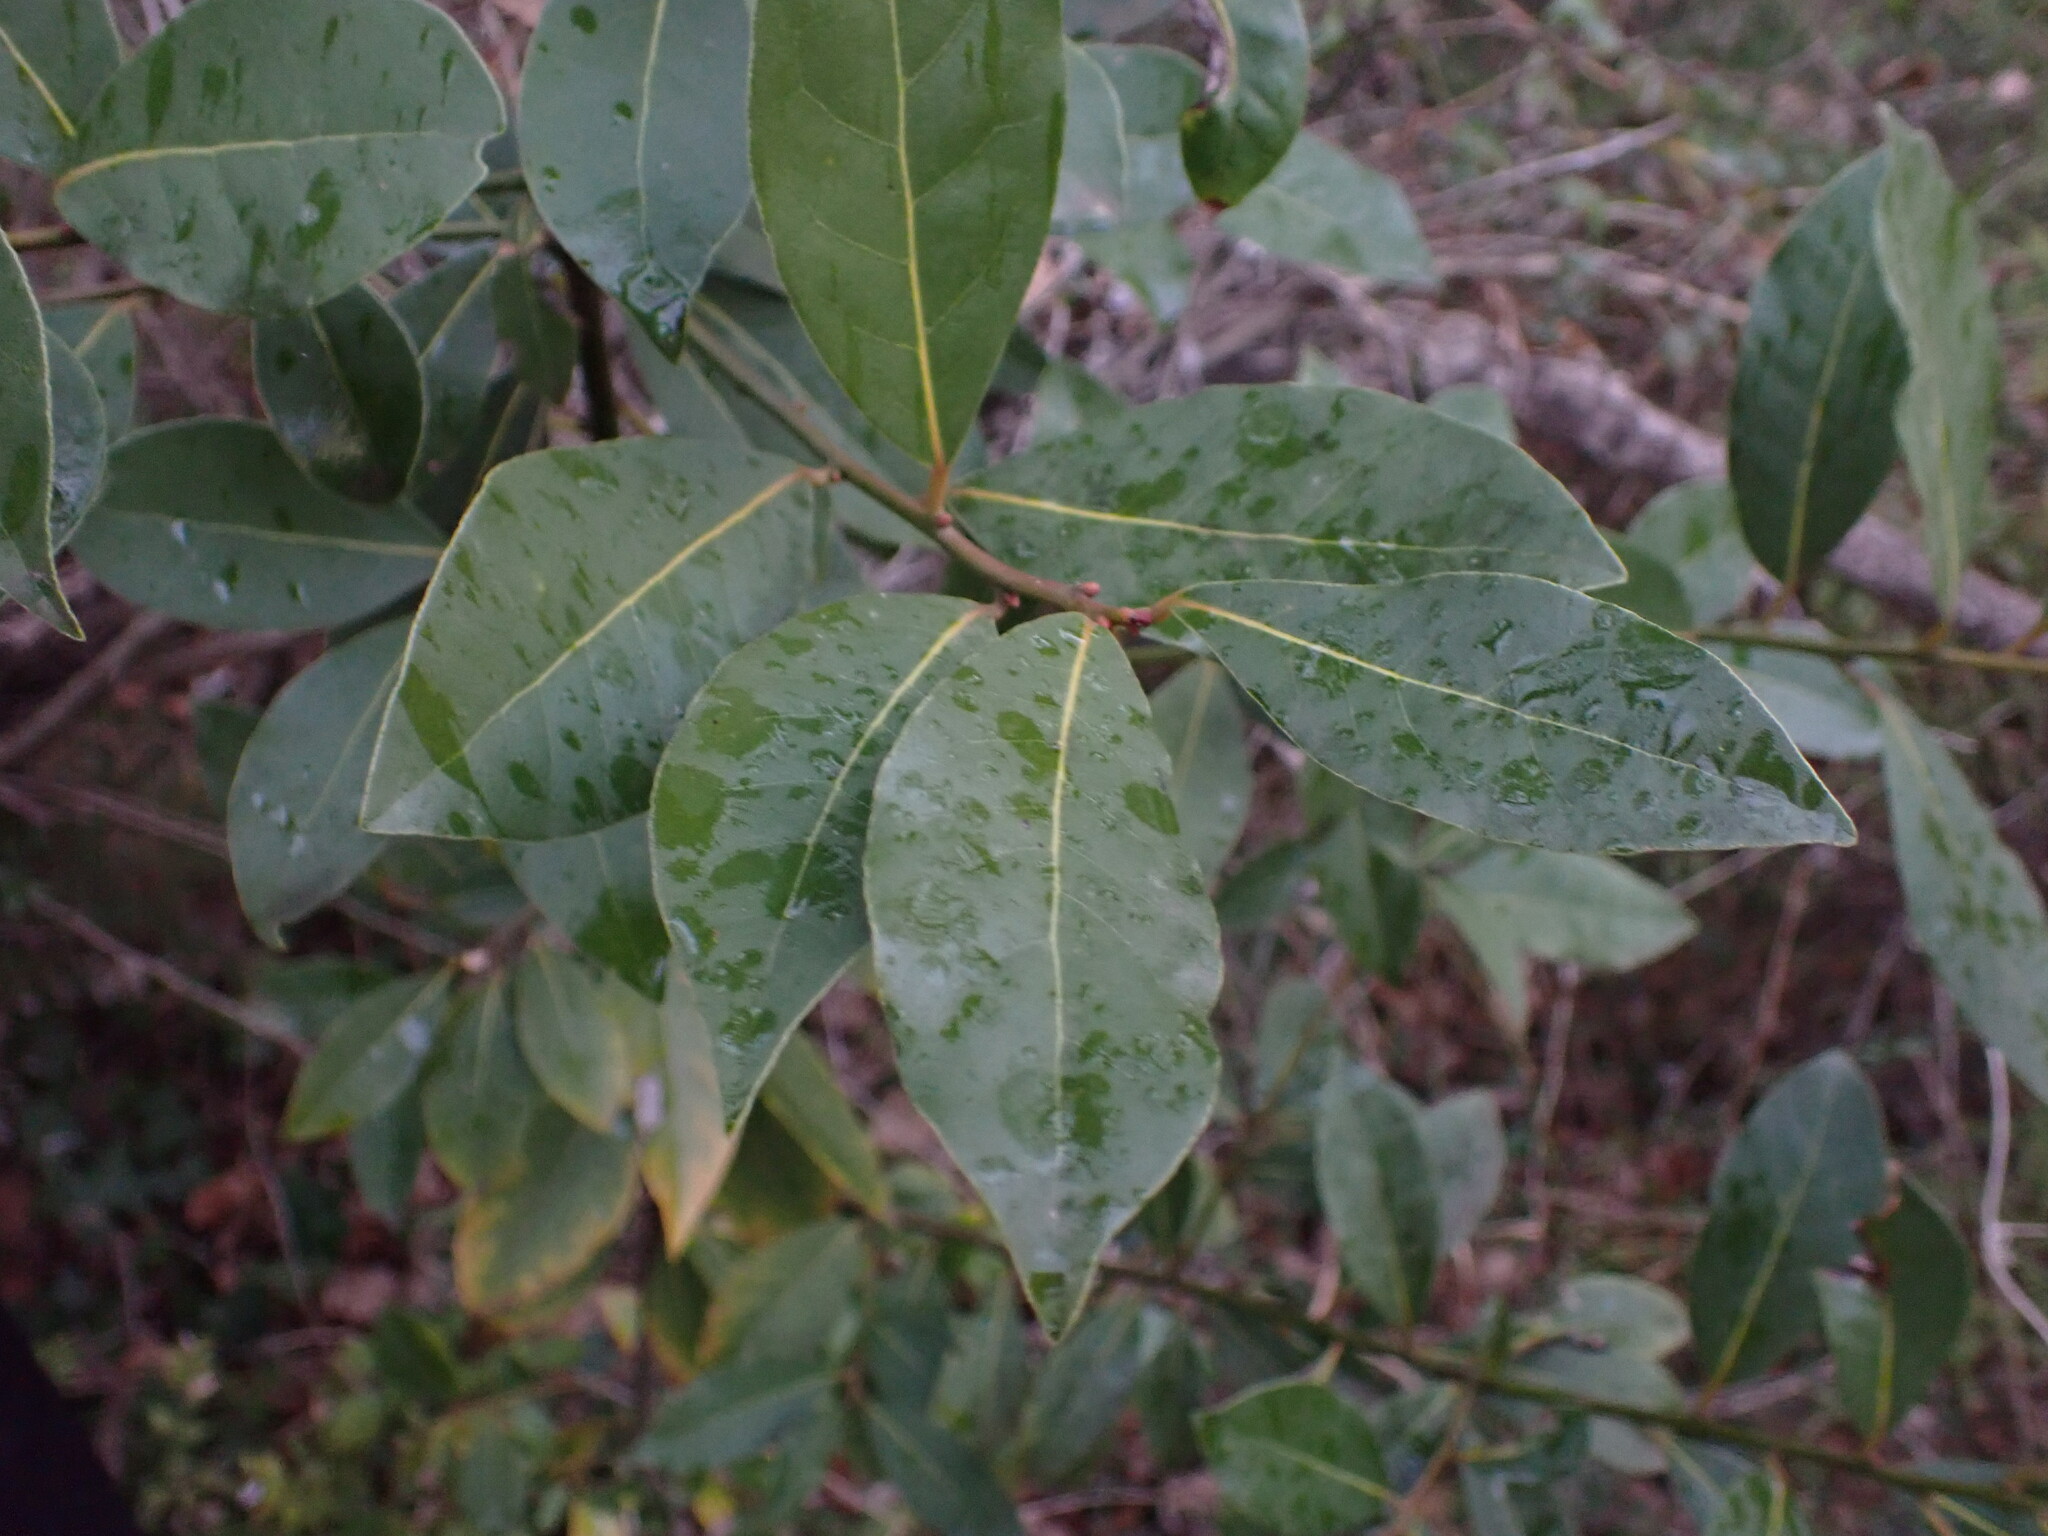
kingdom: Plantae
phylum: Tracheophyta
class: Magnoliopsida
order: Laurales
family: Lauraceae
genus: Laurus
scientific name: Laurus nobilis
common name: Bay
